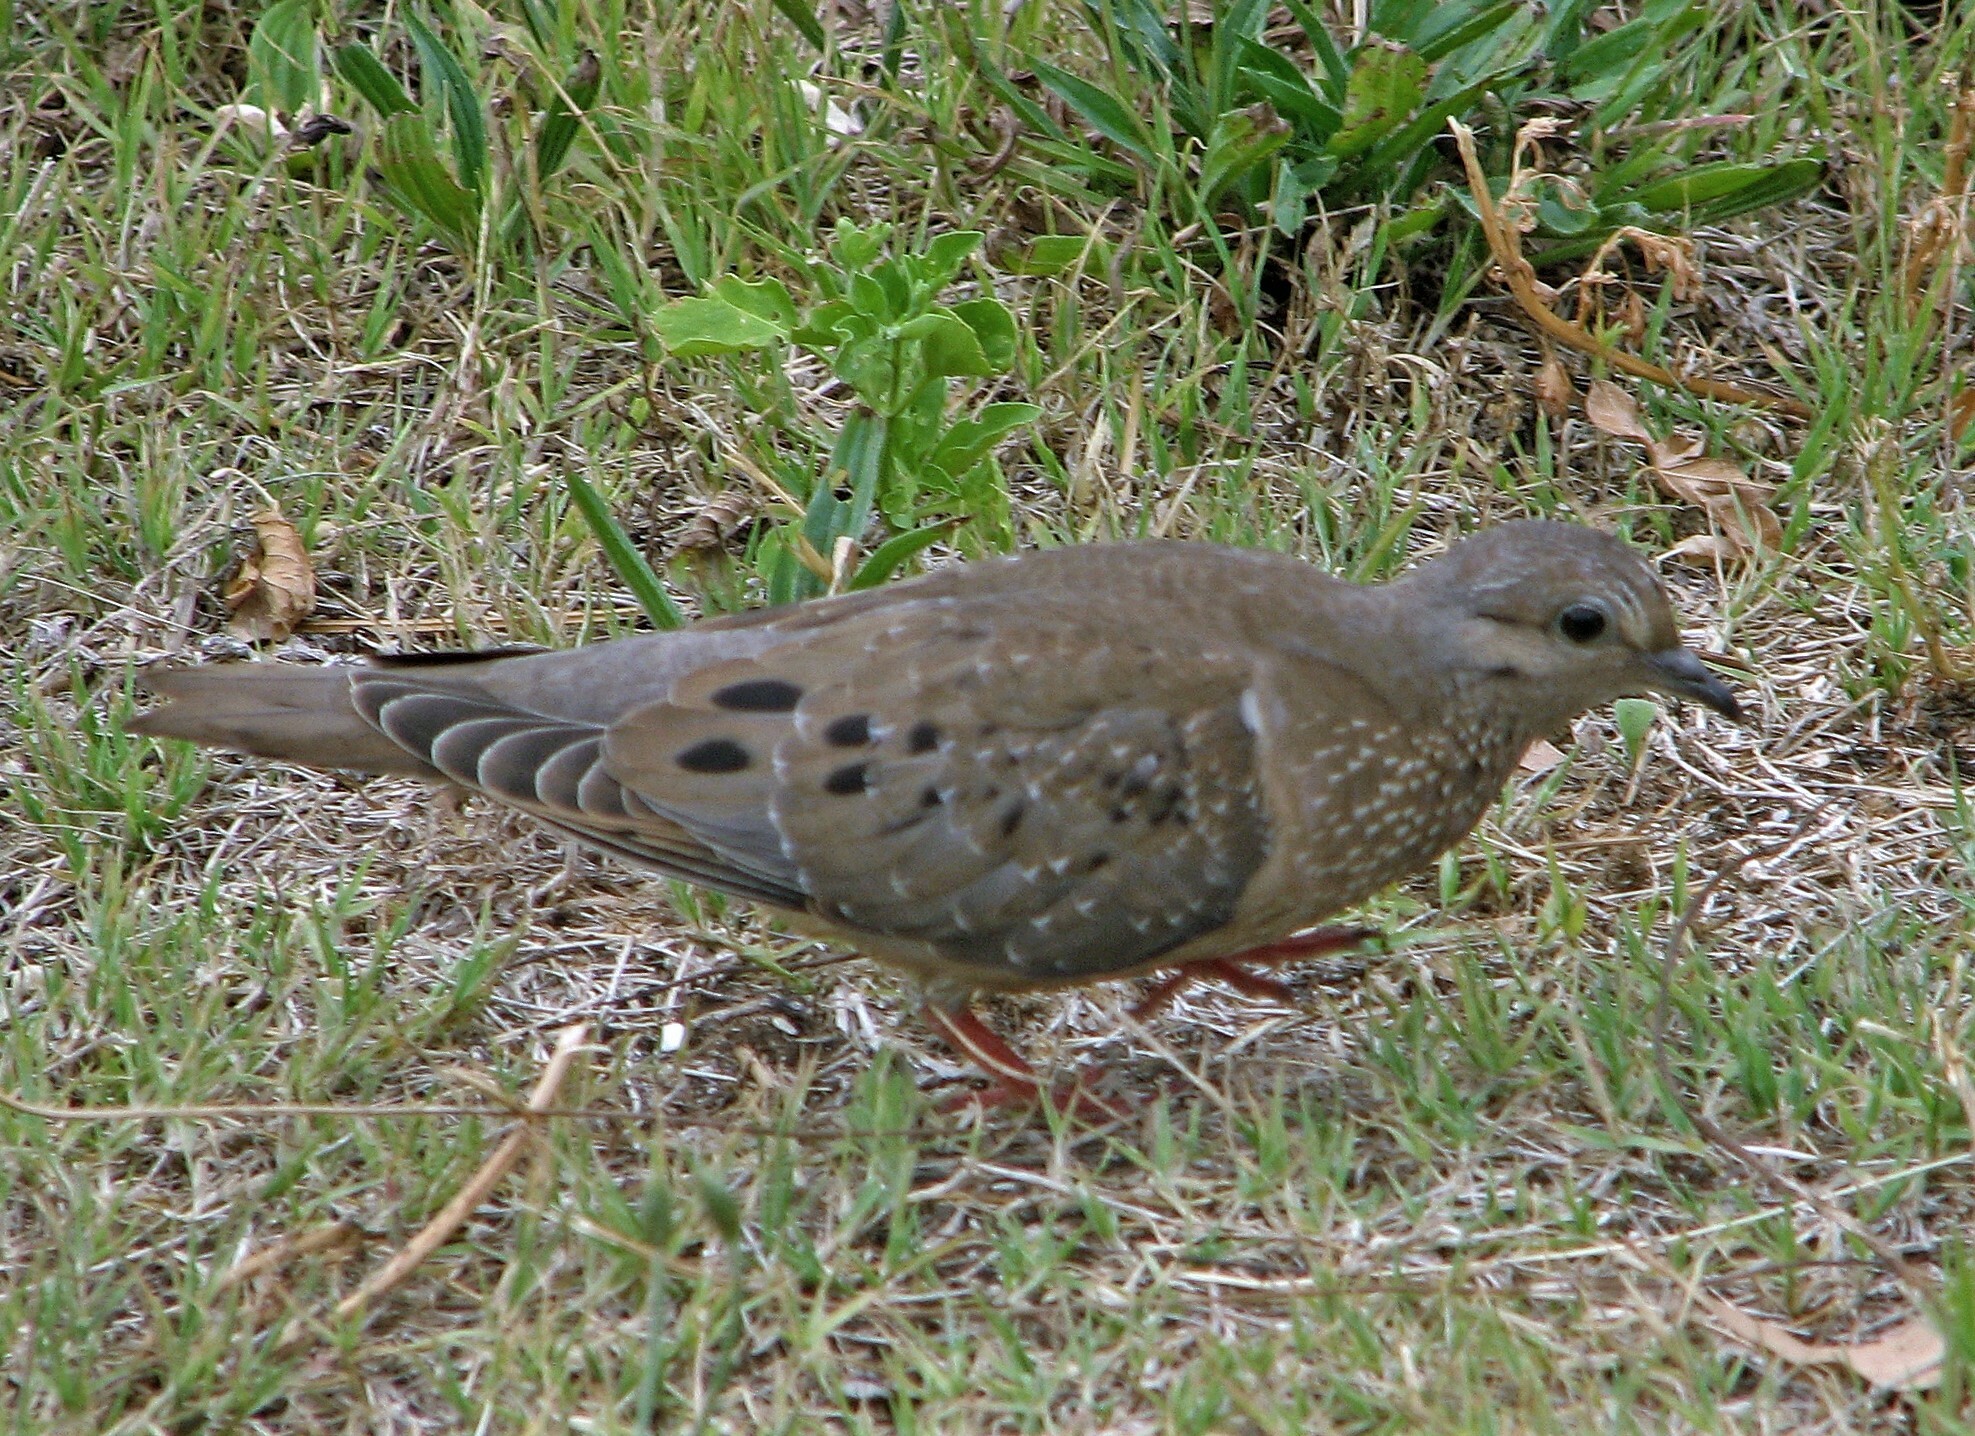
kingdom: Animalia
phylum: Chordata
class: Aves
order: Columbiformes
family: Columbidae
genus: Zenaida
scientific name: Zenaida auriculata
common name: Eared dove
